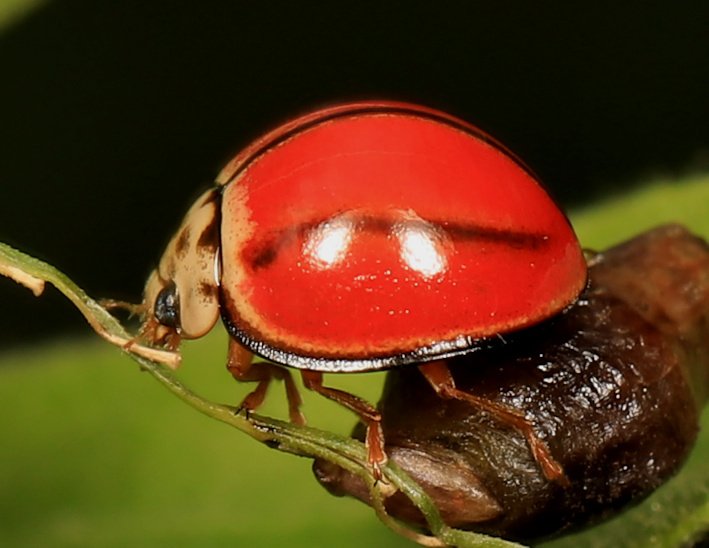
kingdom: Animalia
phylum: Arthropoda
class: Insecta
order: Coleoptera
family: Coccinellidae
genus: Declivitata
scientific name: Declivitata
